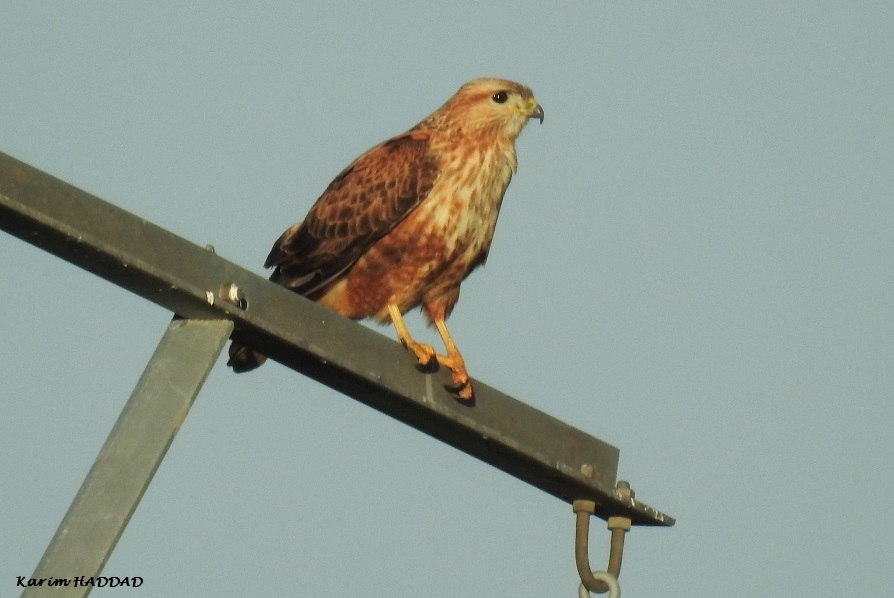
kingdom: Animalia
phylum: Chordata
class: Aves
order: Accipitriformes
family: Accipitridae
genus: Buteo
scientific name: Buteo rufinus
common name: Long-legged buzzard
